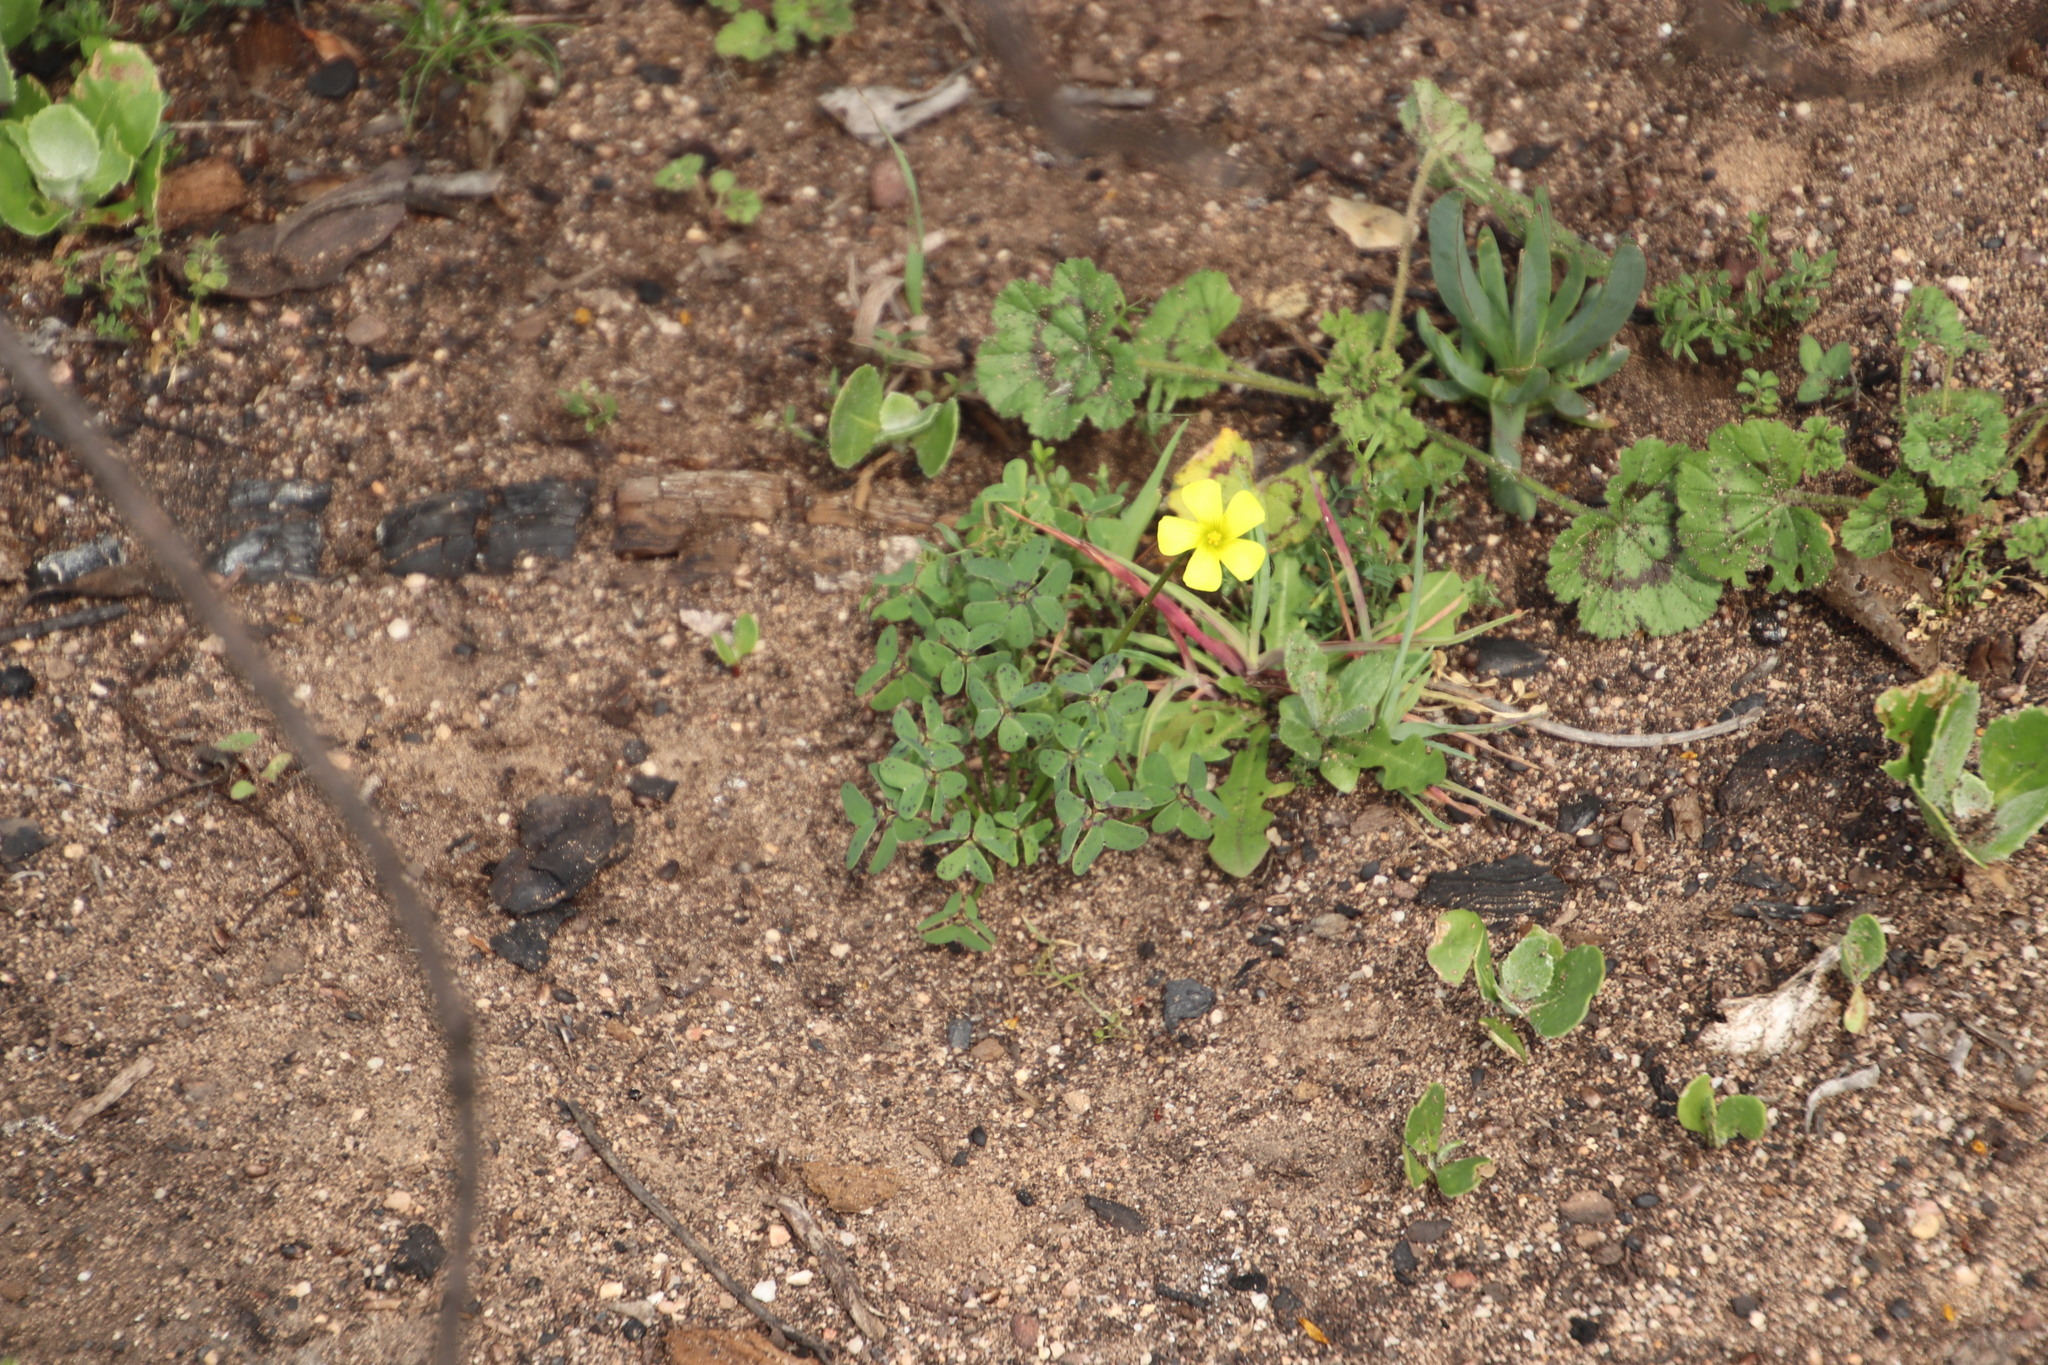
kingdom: Plantae
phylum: Tracheophyta
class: Magnoliopsida
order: Oxalidales
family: Oxalidaceae
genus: Oxalis
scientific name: Oxalis pes-caprae
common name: Bermuda-buttercup
